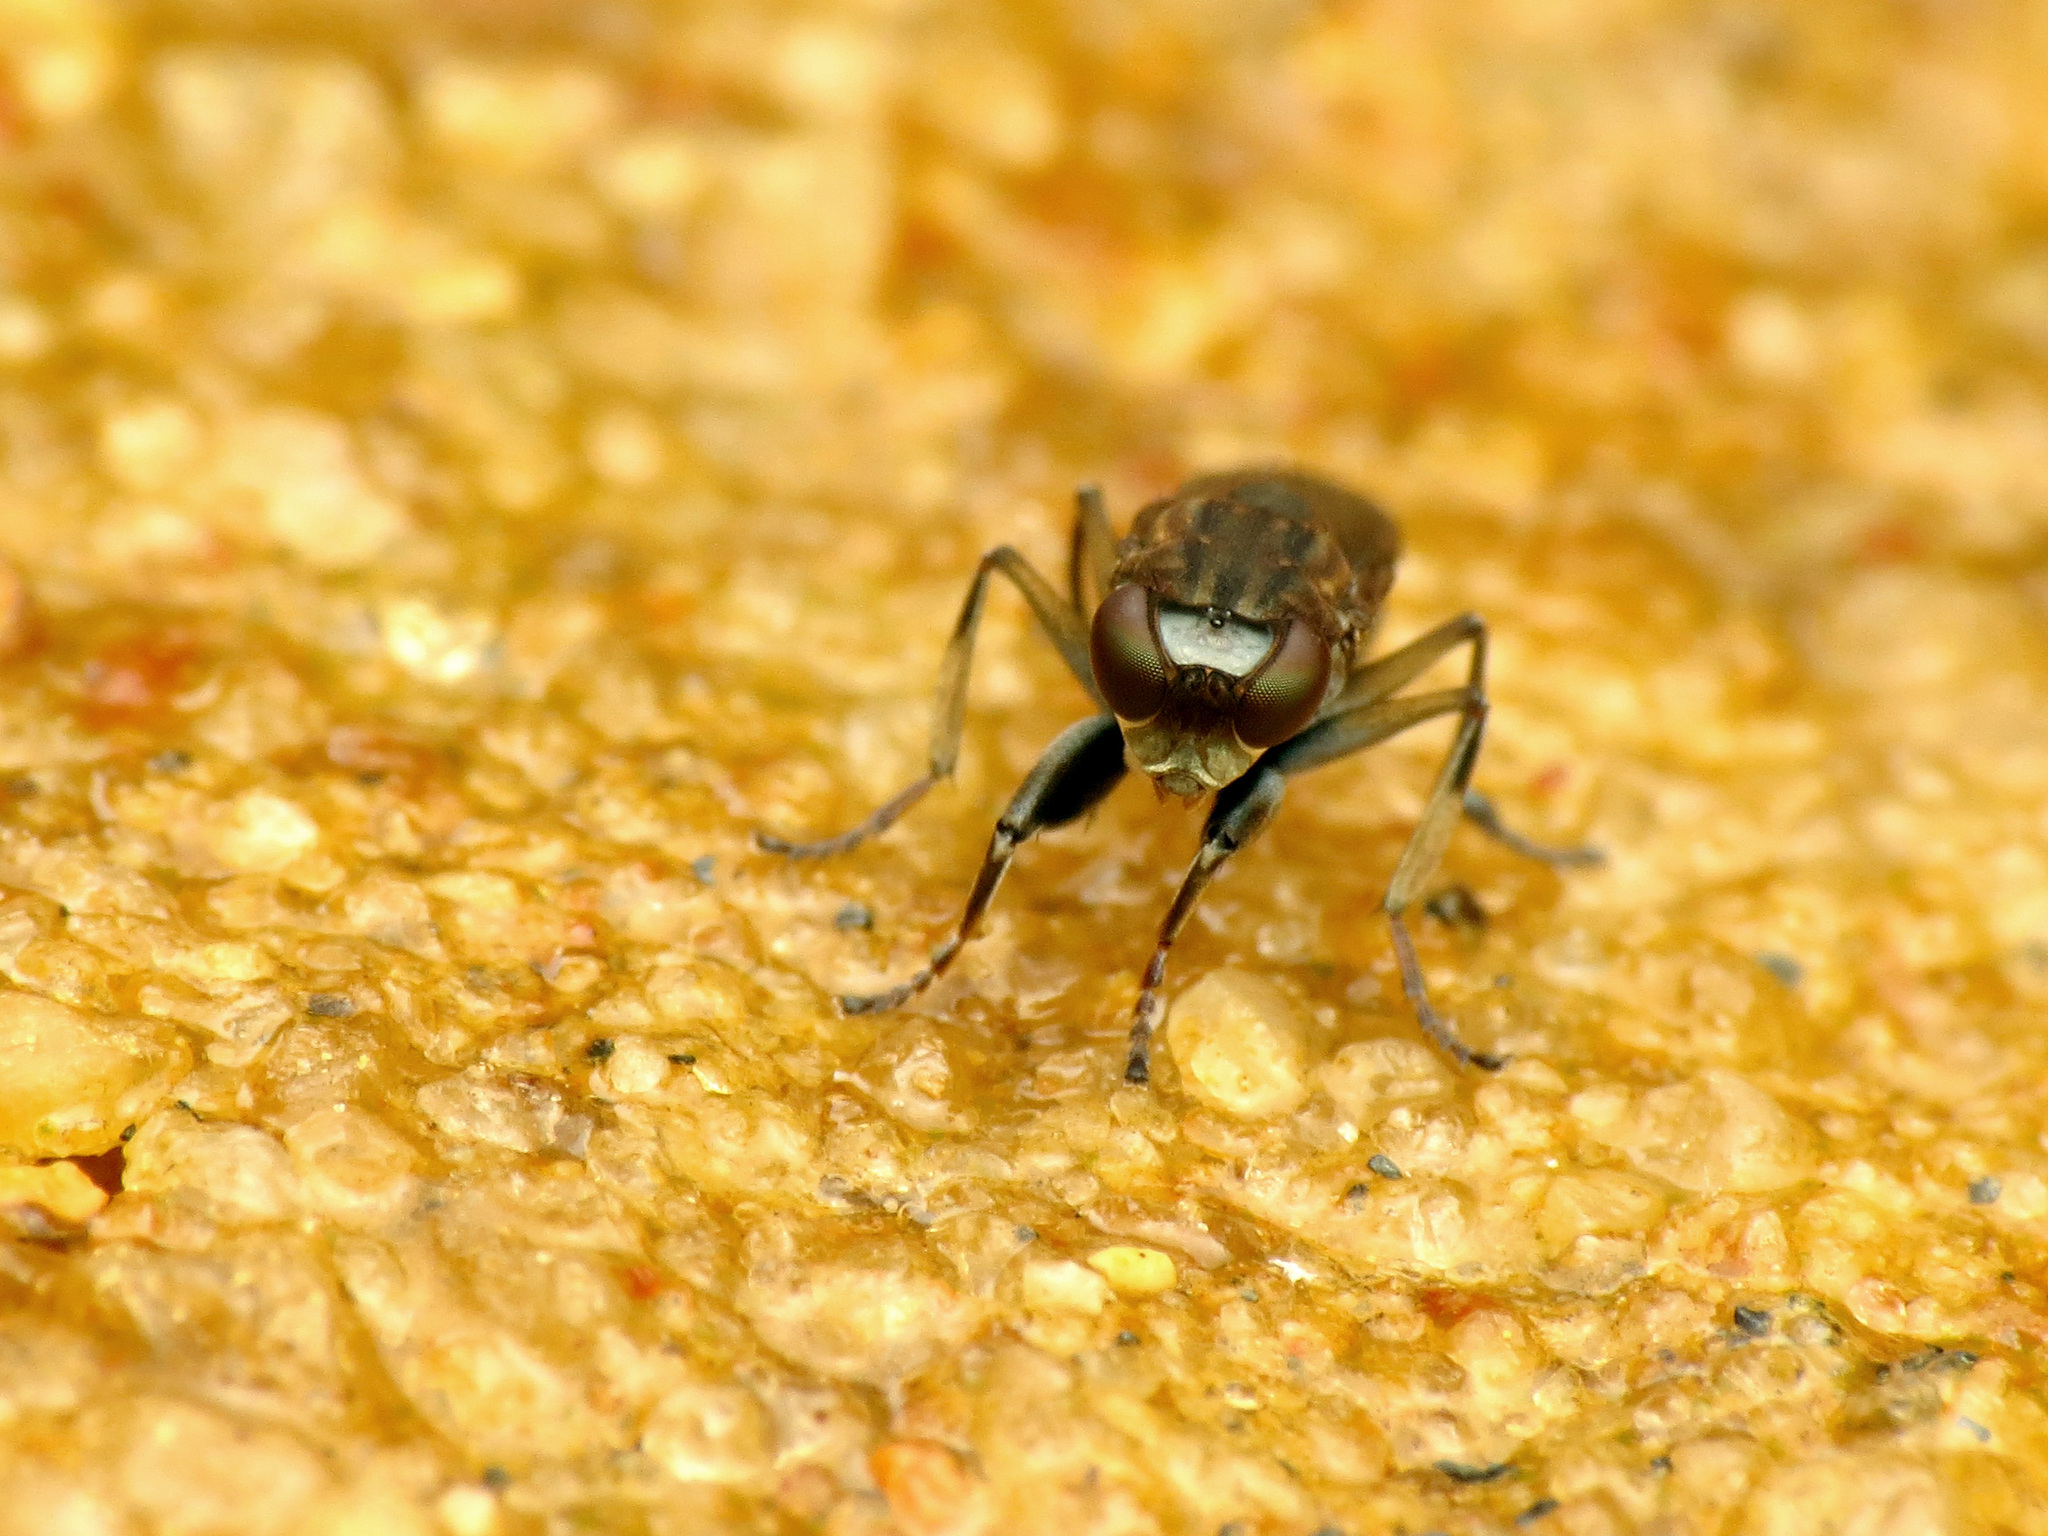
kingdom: Animalia
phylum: Arthropoda
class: Insecta
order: Diptera
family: Ephydridae
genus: Ochthera
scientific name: Ochthera tuberculata
